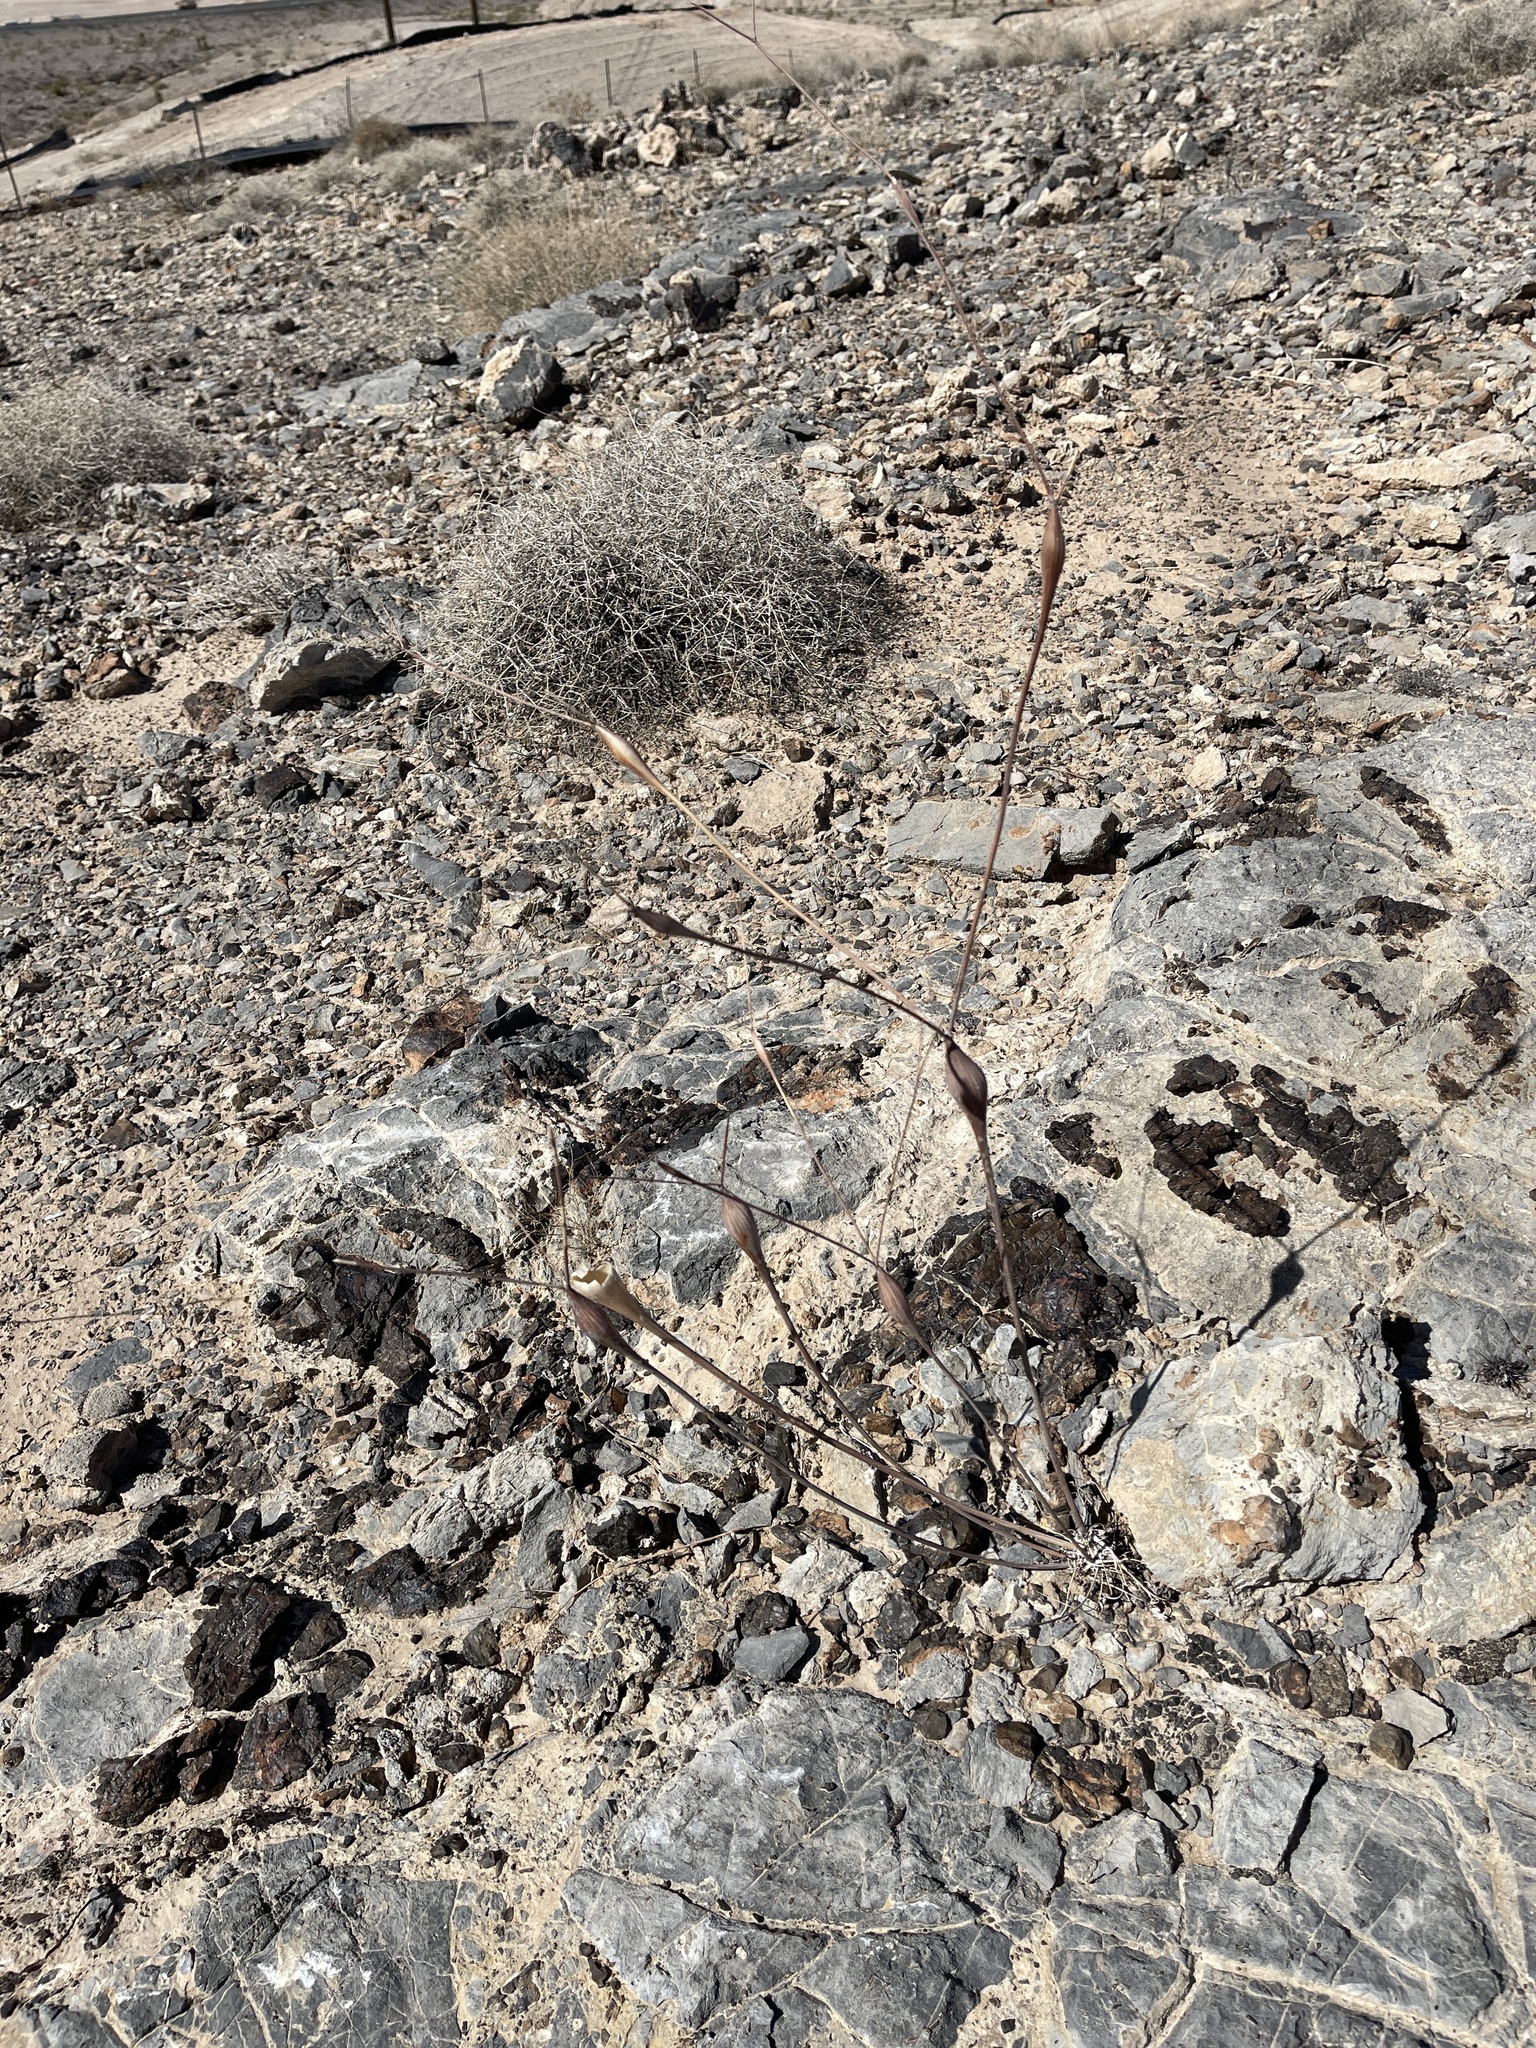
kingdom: Plantae
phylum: Tracheophyta
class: Magnoliopsida
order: Caryophyllales
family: Polygonaceae
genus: Eriogonum
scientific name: Eriogonum inflatum
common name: Desert trumpet
